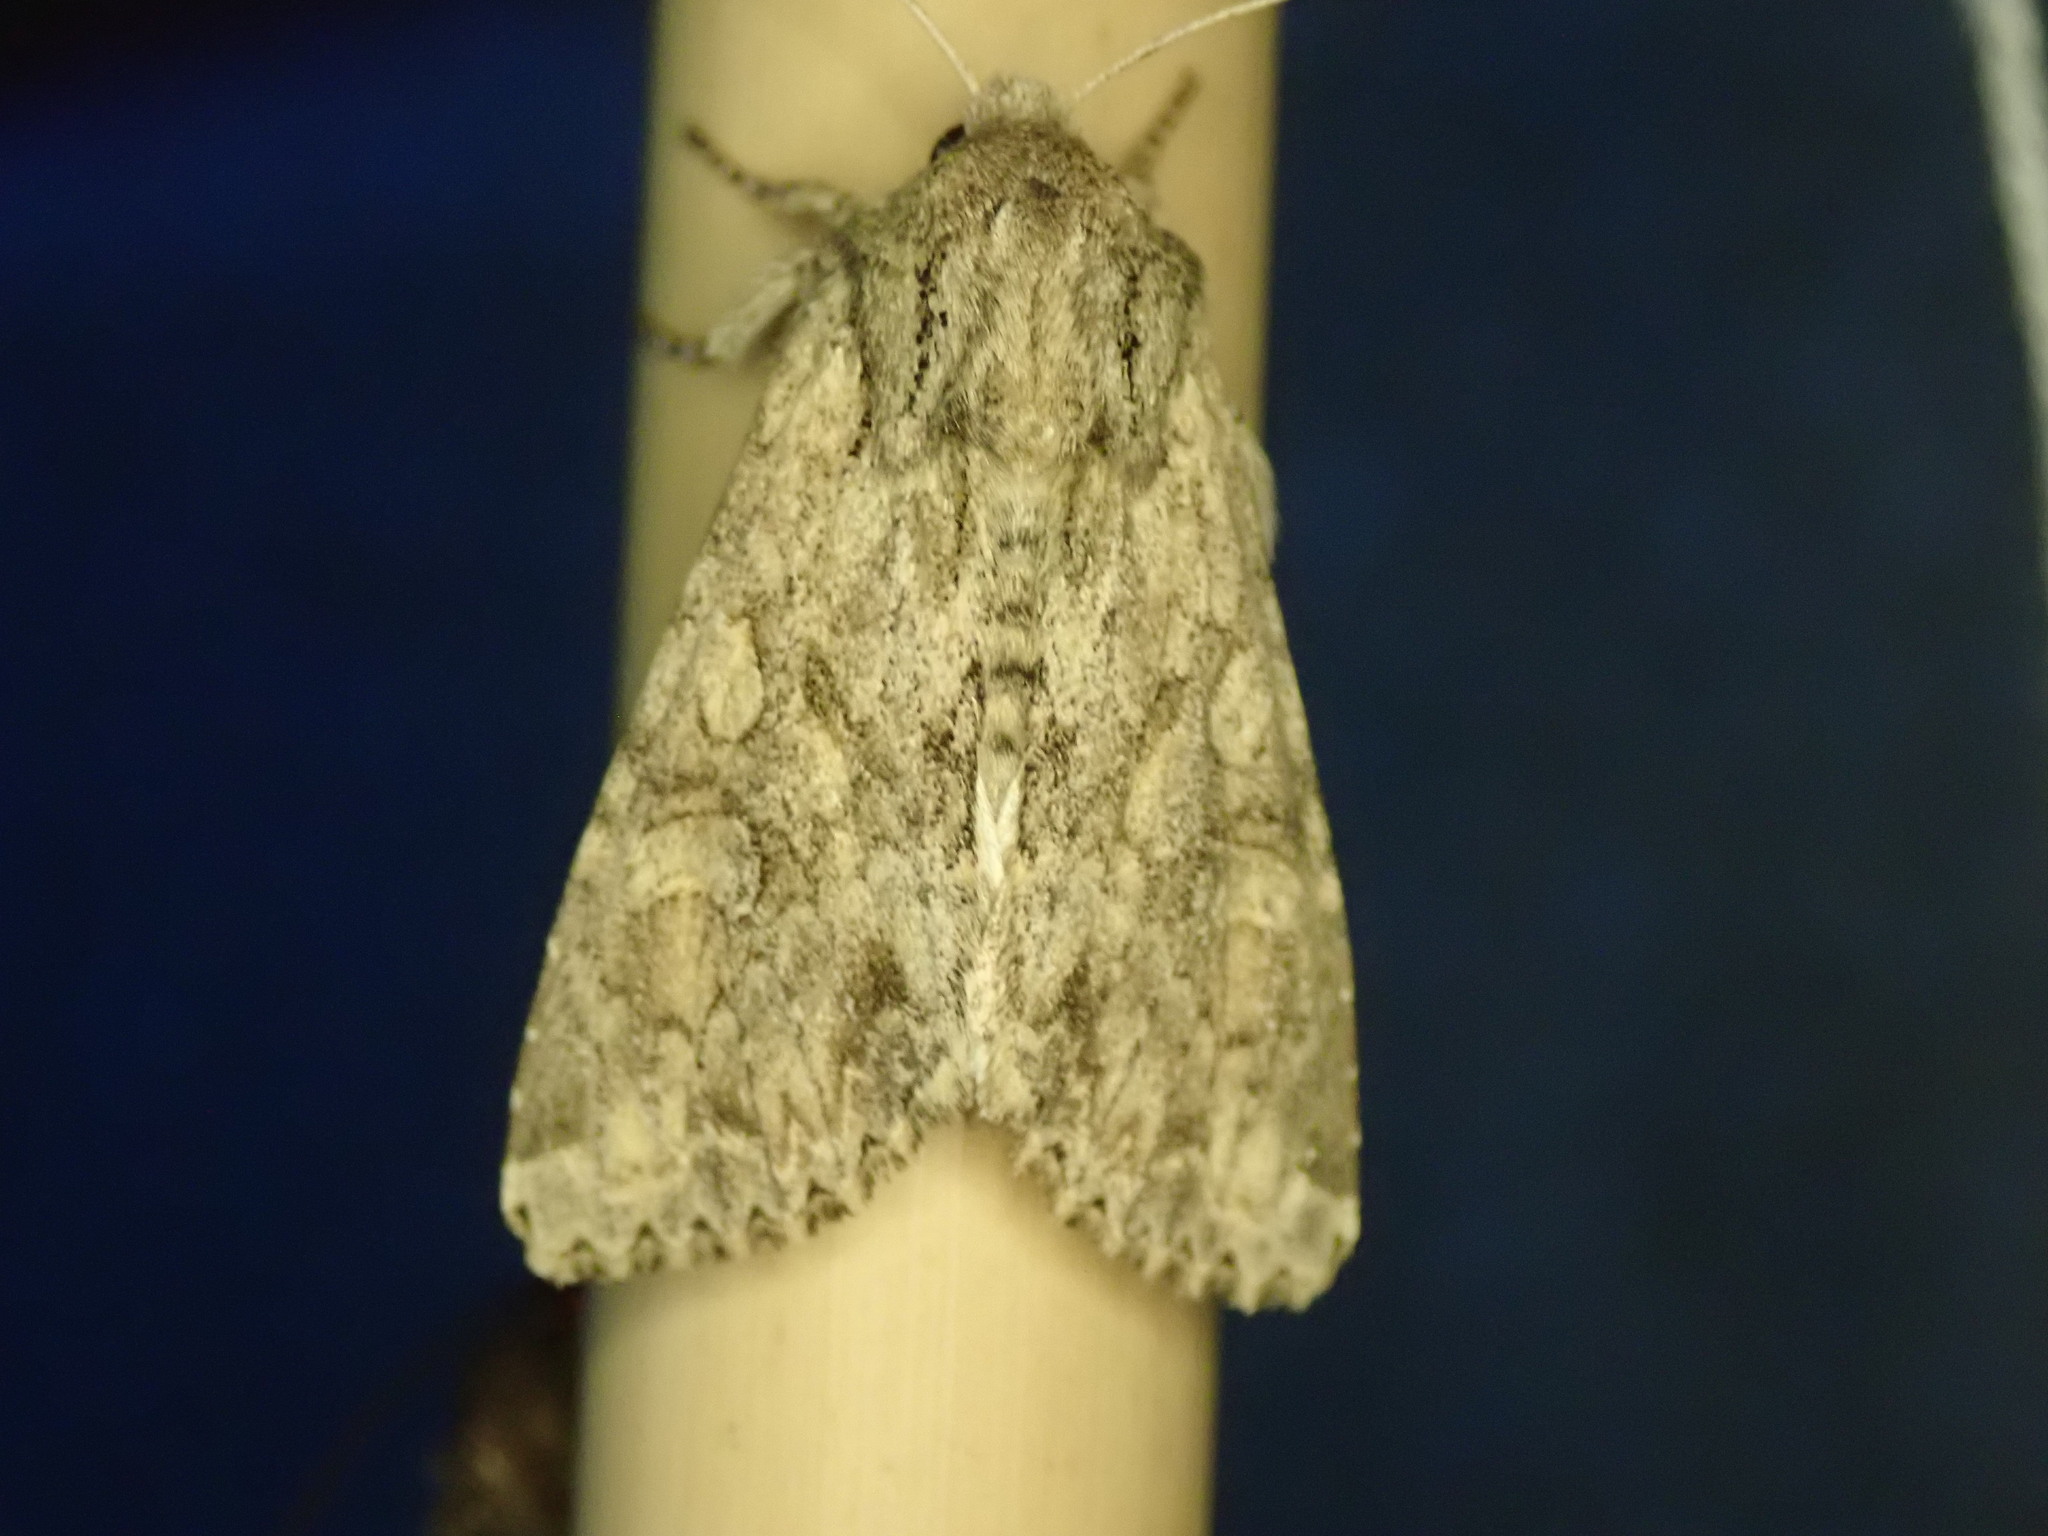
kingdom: Animalia
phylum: Arthropoda
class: Insecta
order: Lepidoptera
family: Noctuidae
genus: Apamea
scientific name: Apamea anceps
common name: Large nutmeg
